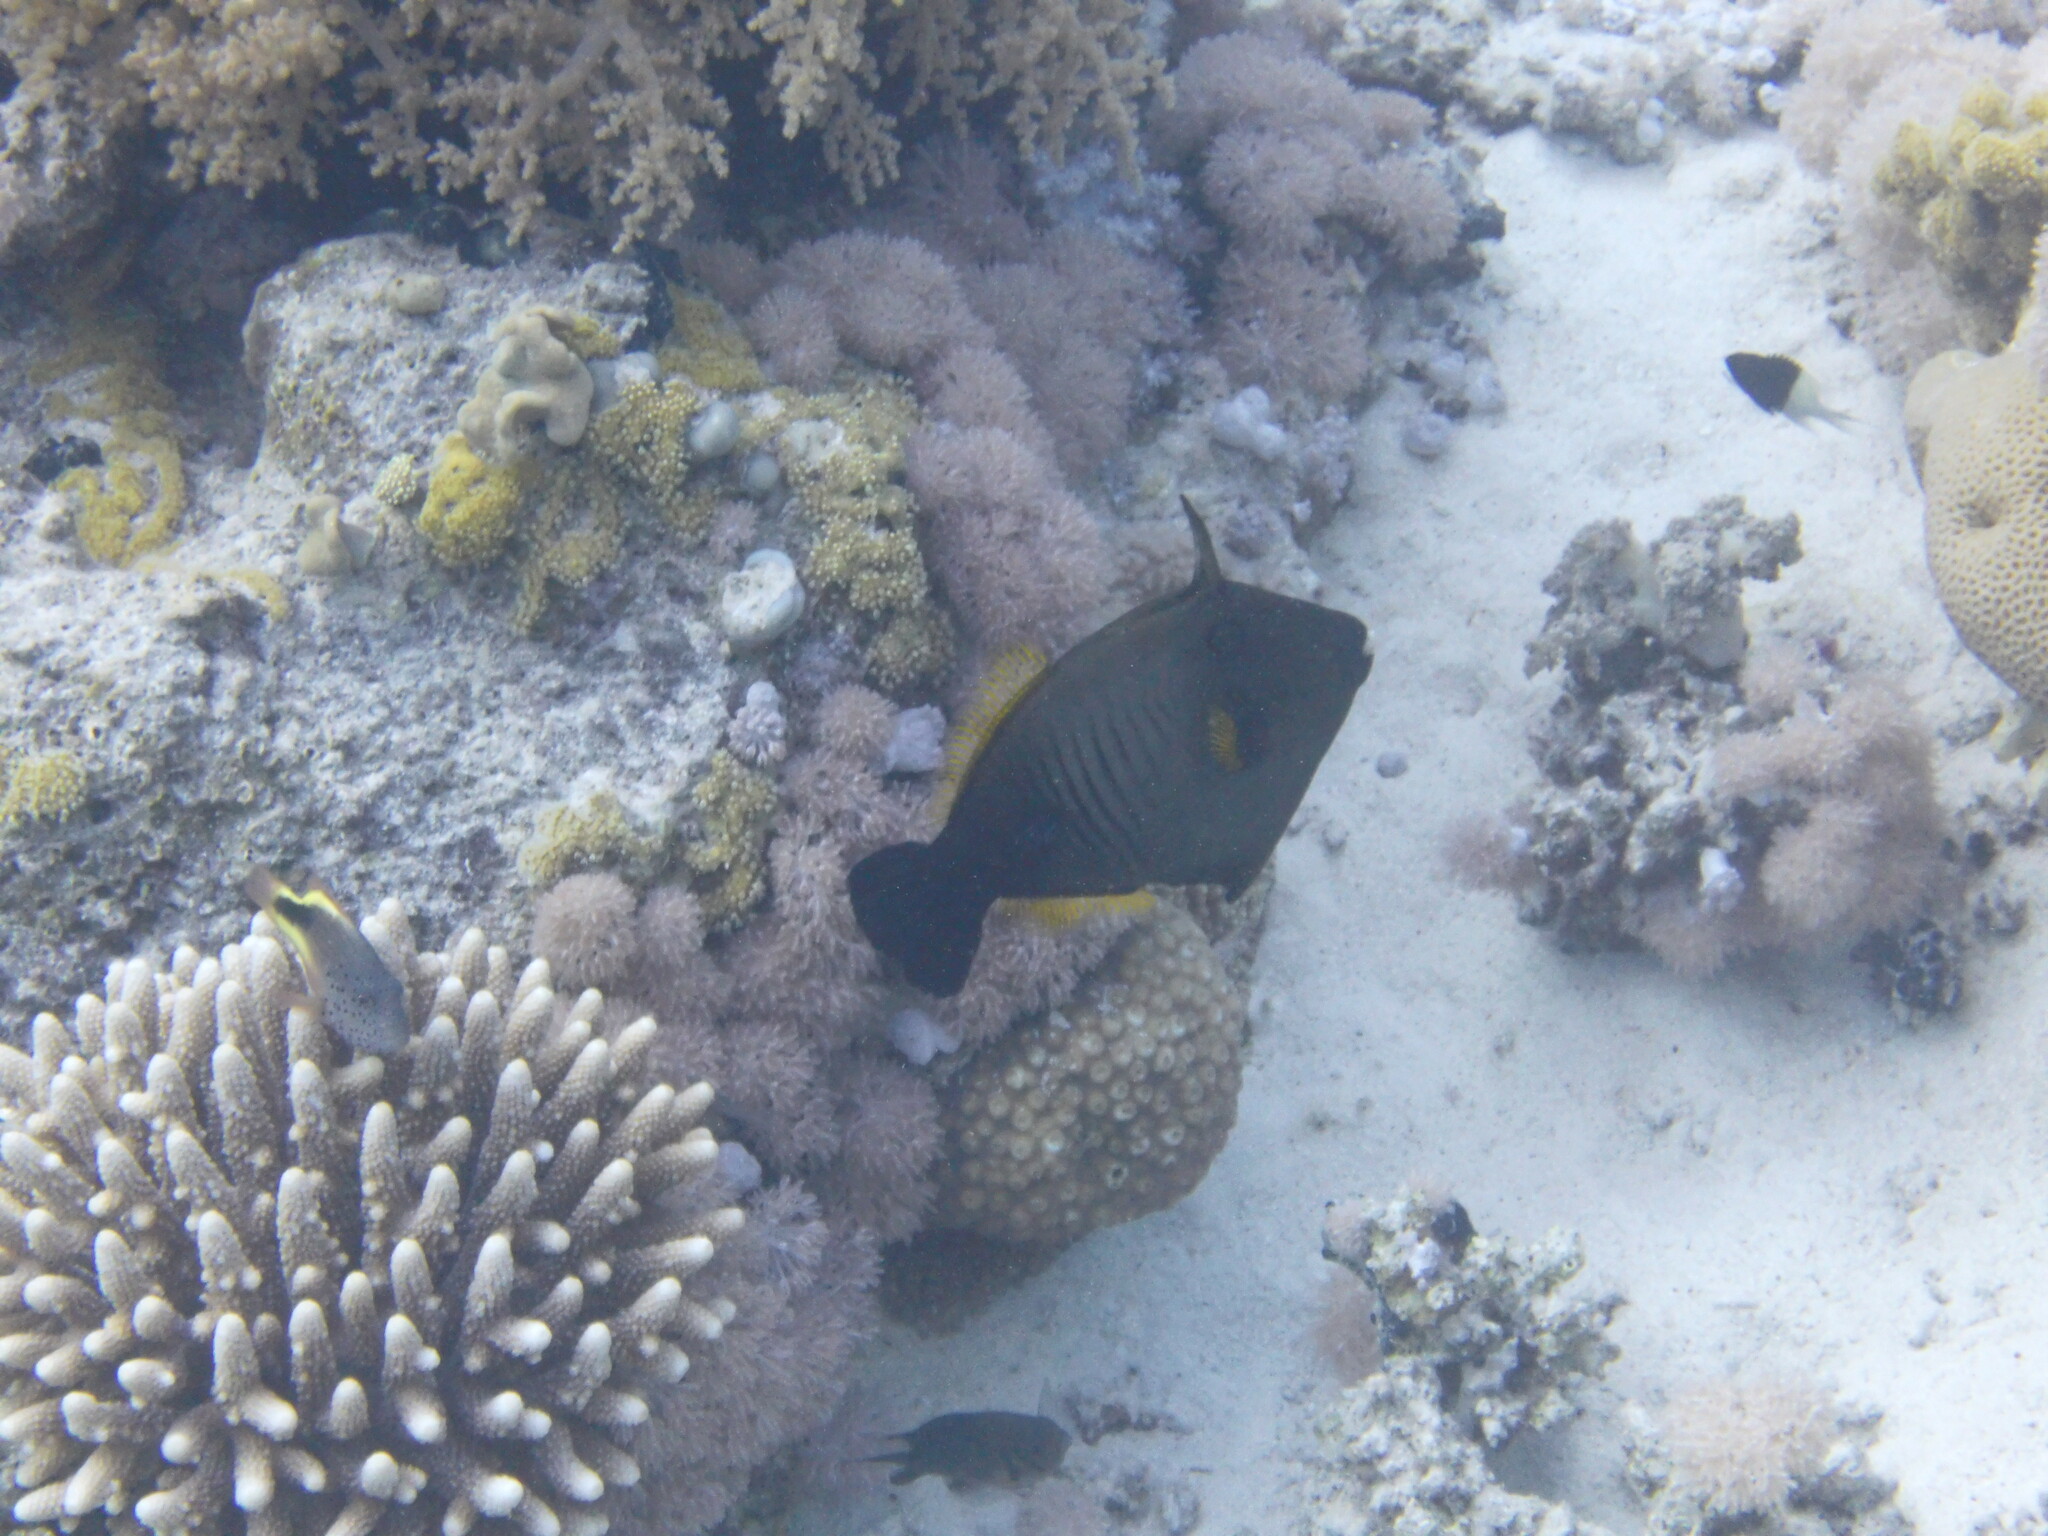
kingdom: Animalia
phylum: Chordata
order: Tetraodontiformes
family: Monacanthidae
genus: Amanses
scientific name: Amanses scopas
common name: Broom filefish
